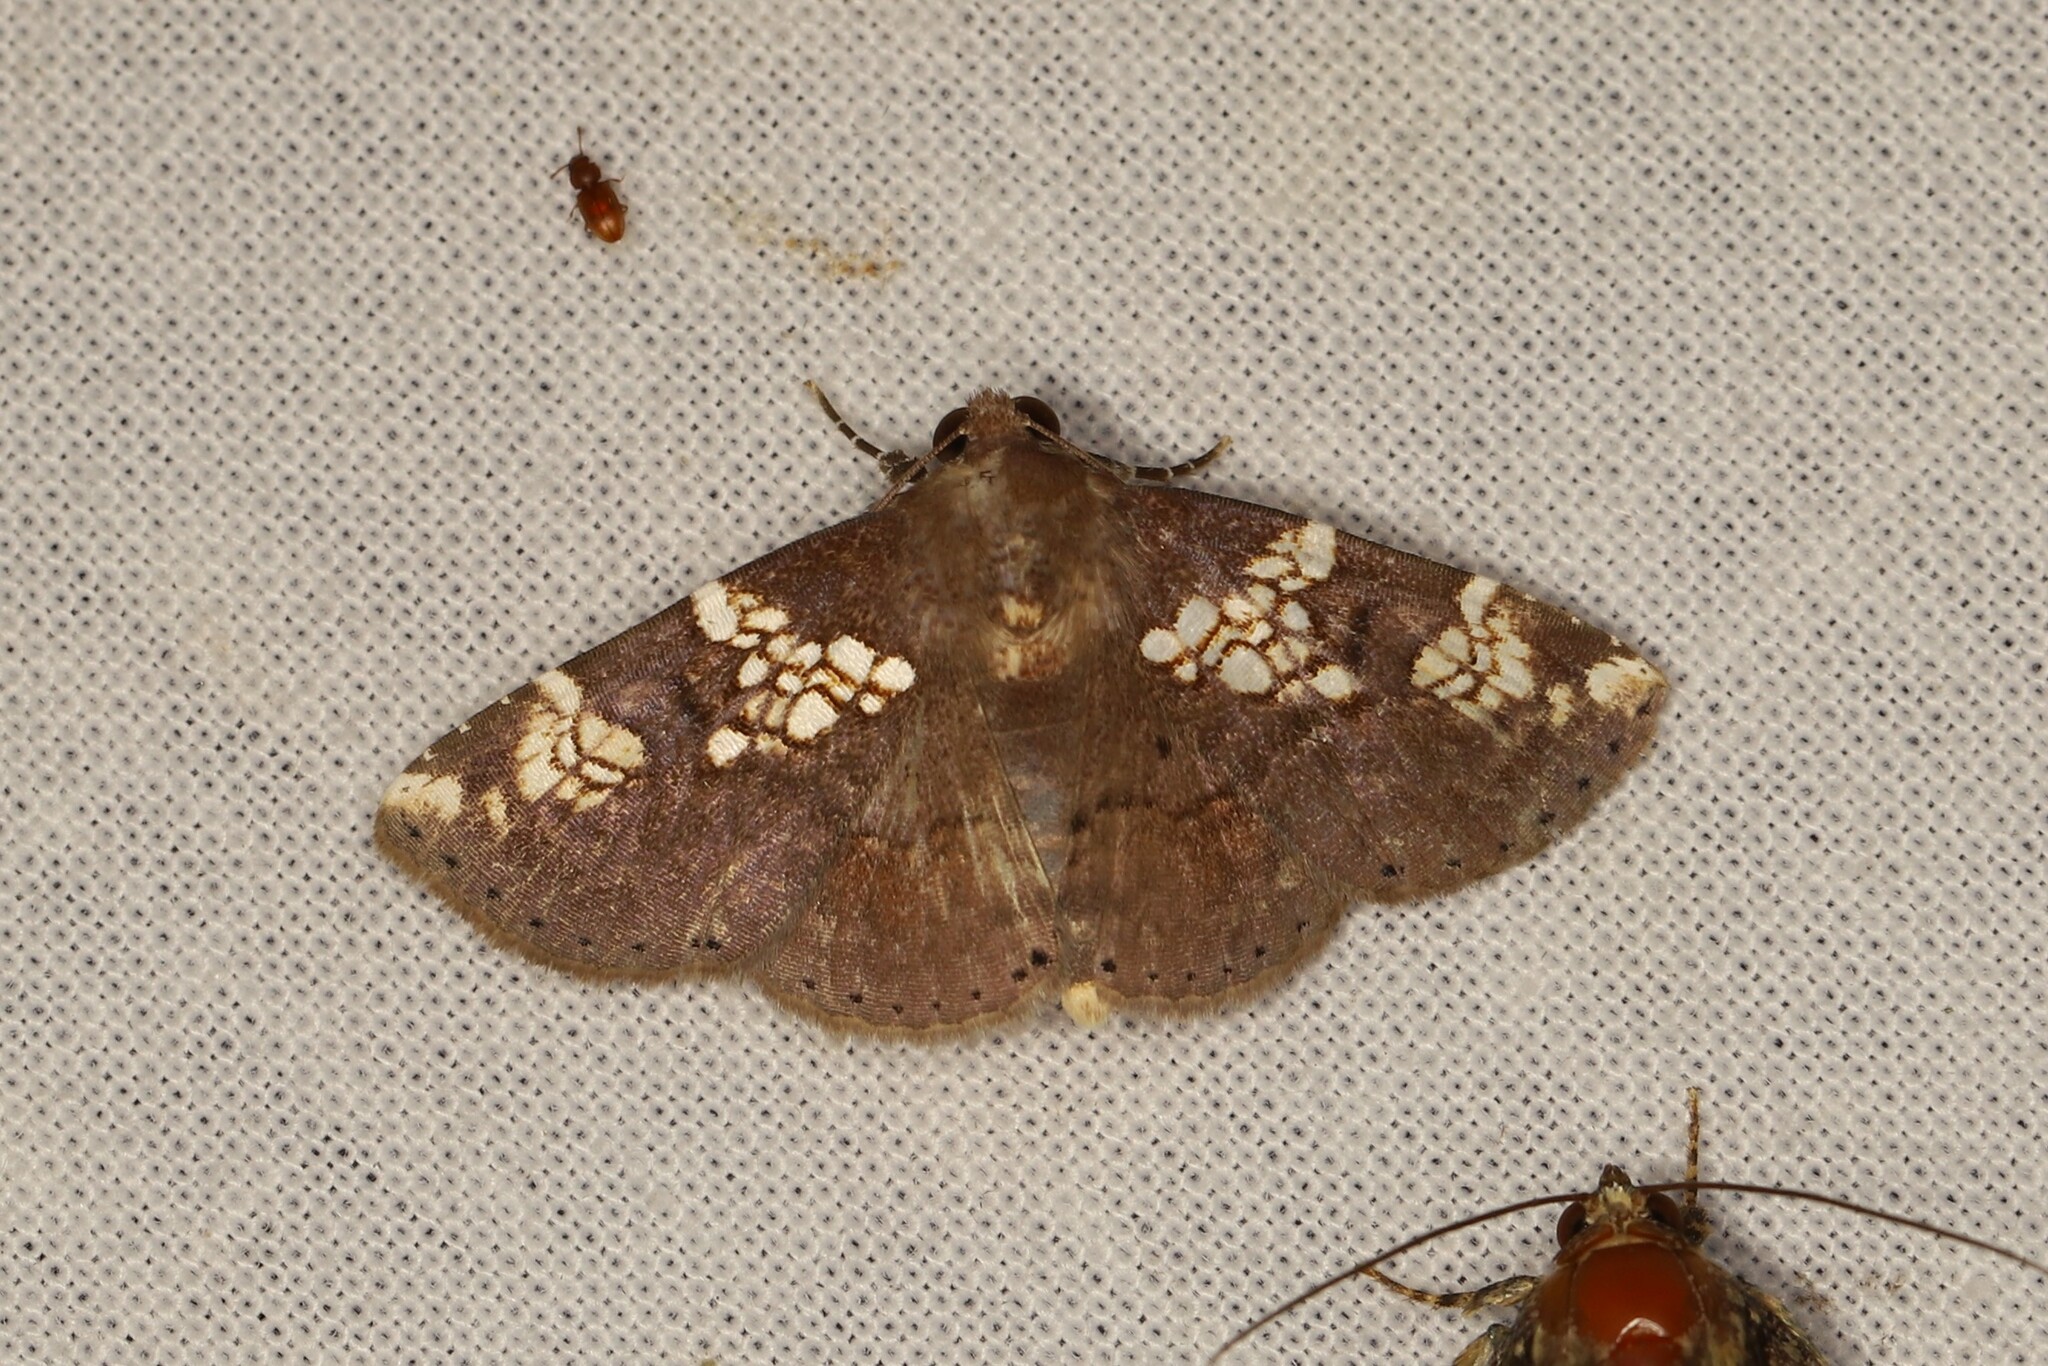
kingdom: Animalia
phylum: Arthropoda
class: Insecta
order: Lepidoptera
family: Erebidae
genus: Antiblemma
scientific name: Antiblemma perornata
